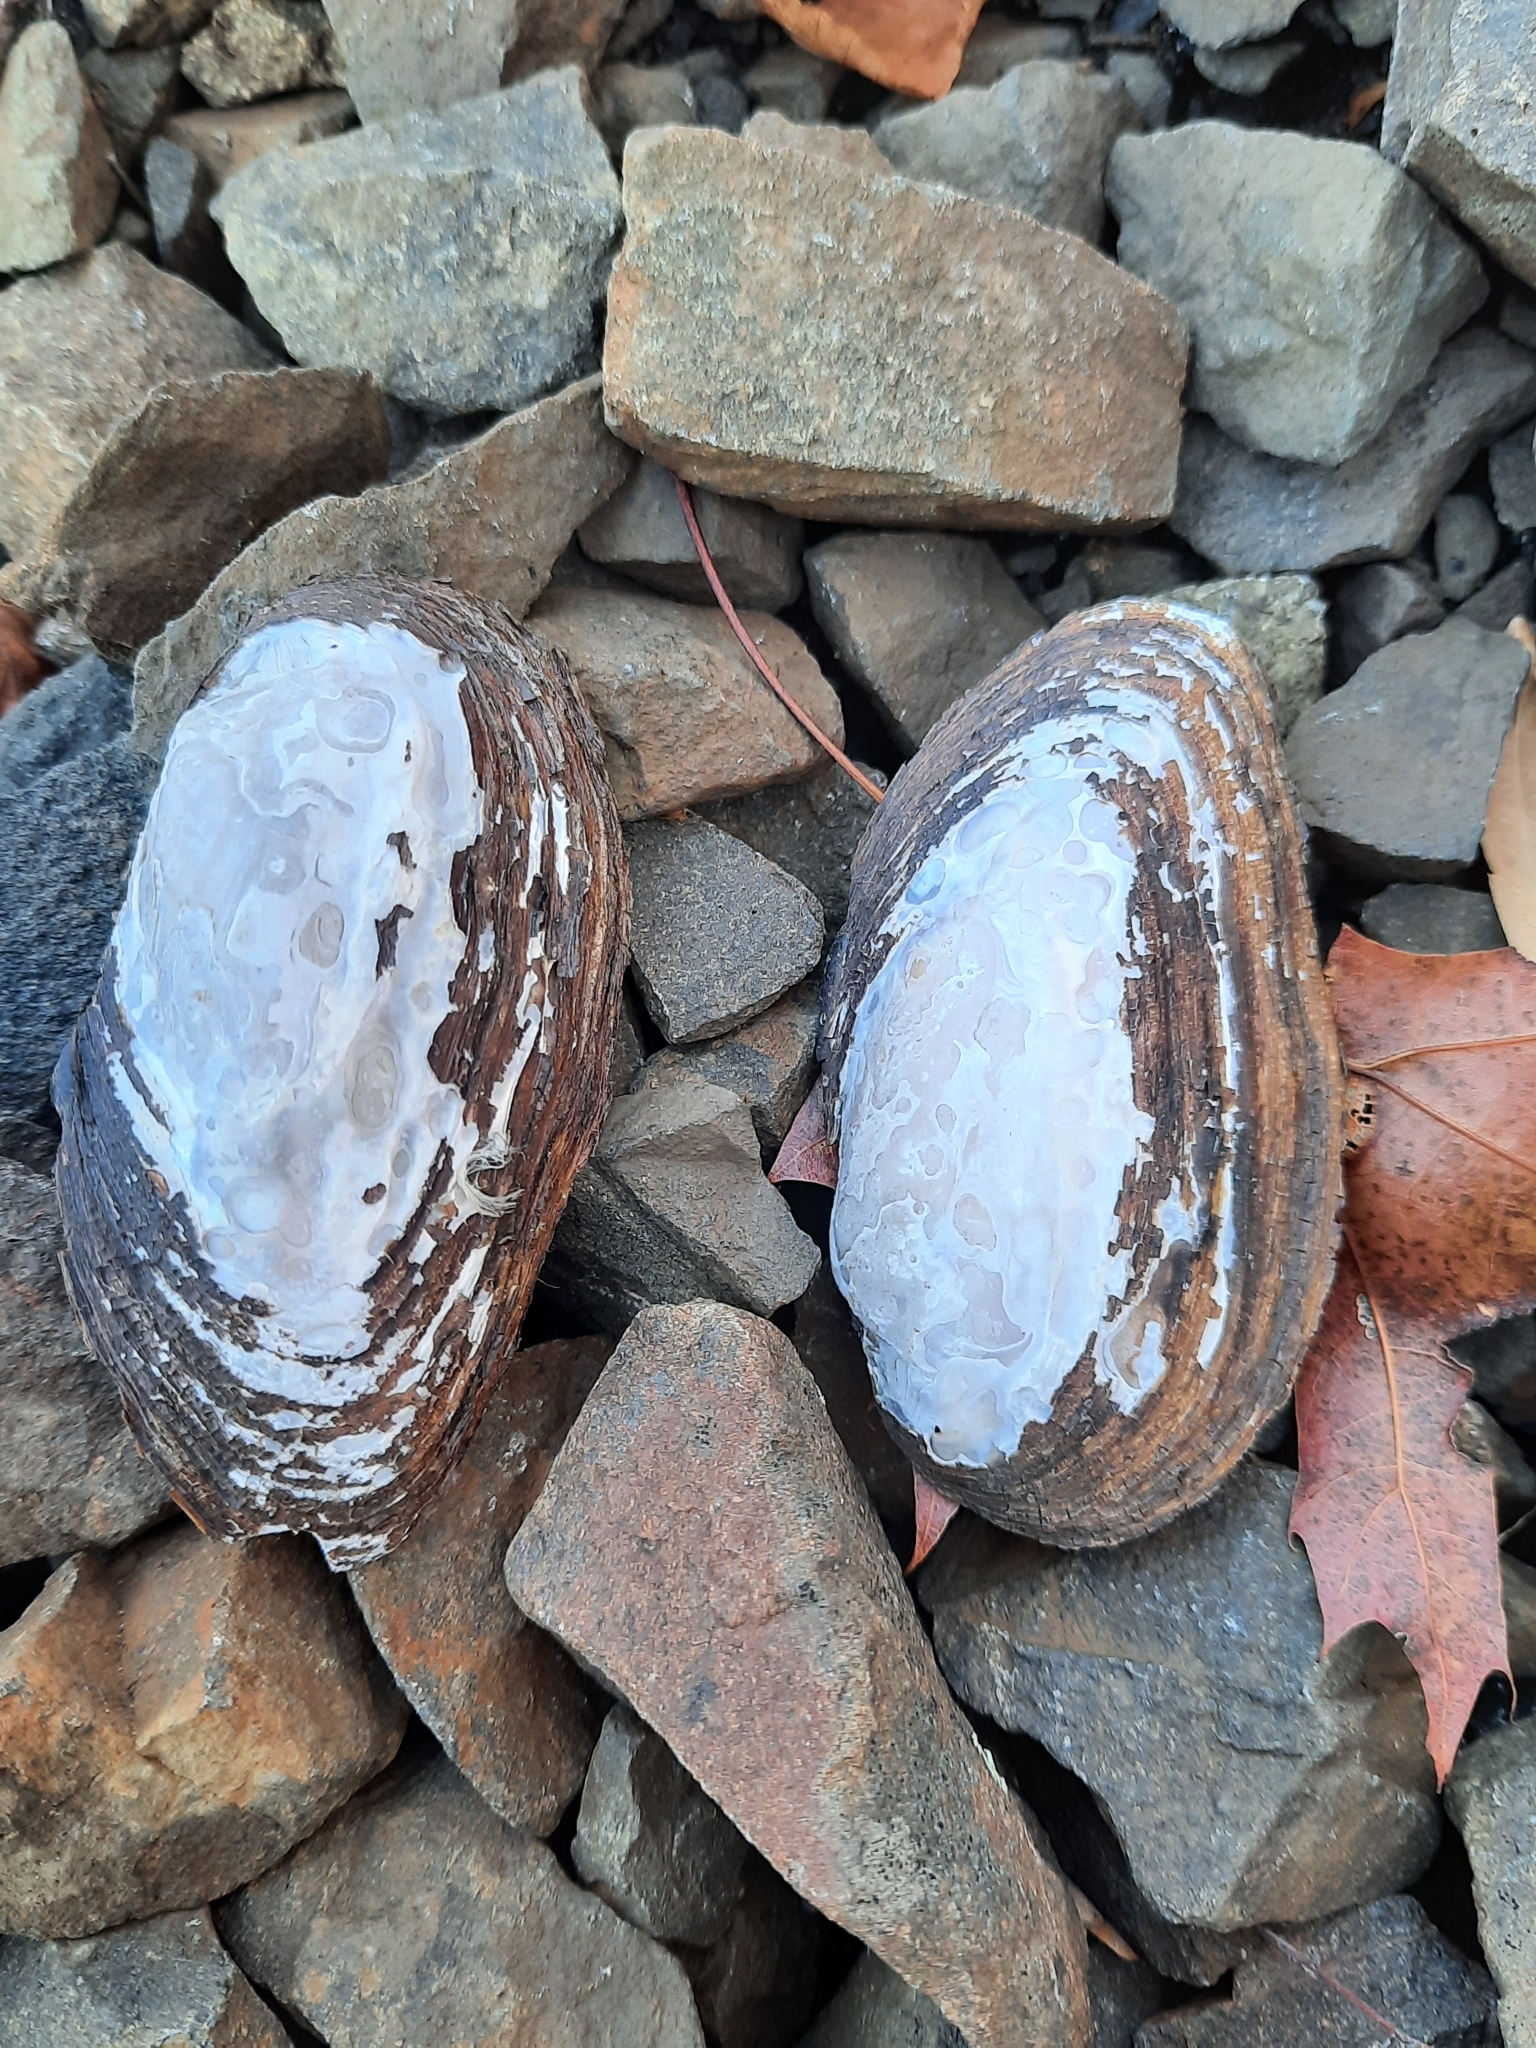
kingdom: Animalia
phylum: Mollusca
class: Bivalvia
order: Unionida
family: Unionidae
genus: Elliptio
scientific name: Elliptio complanata
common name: Eastern elliptio
